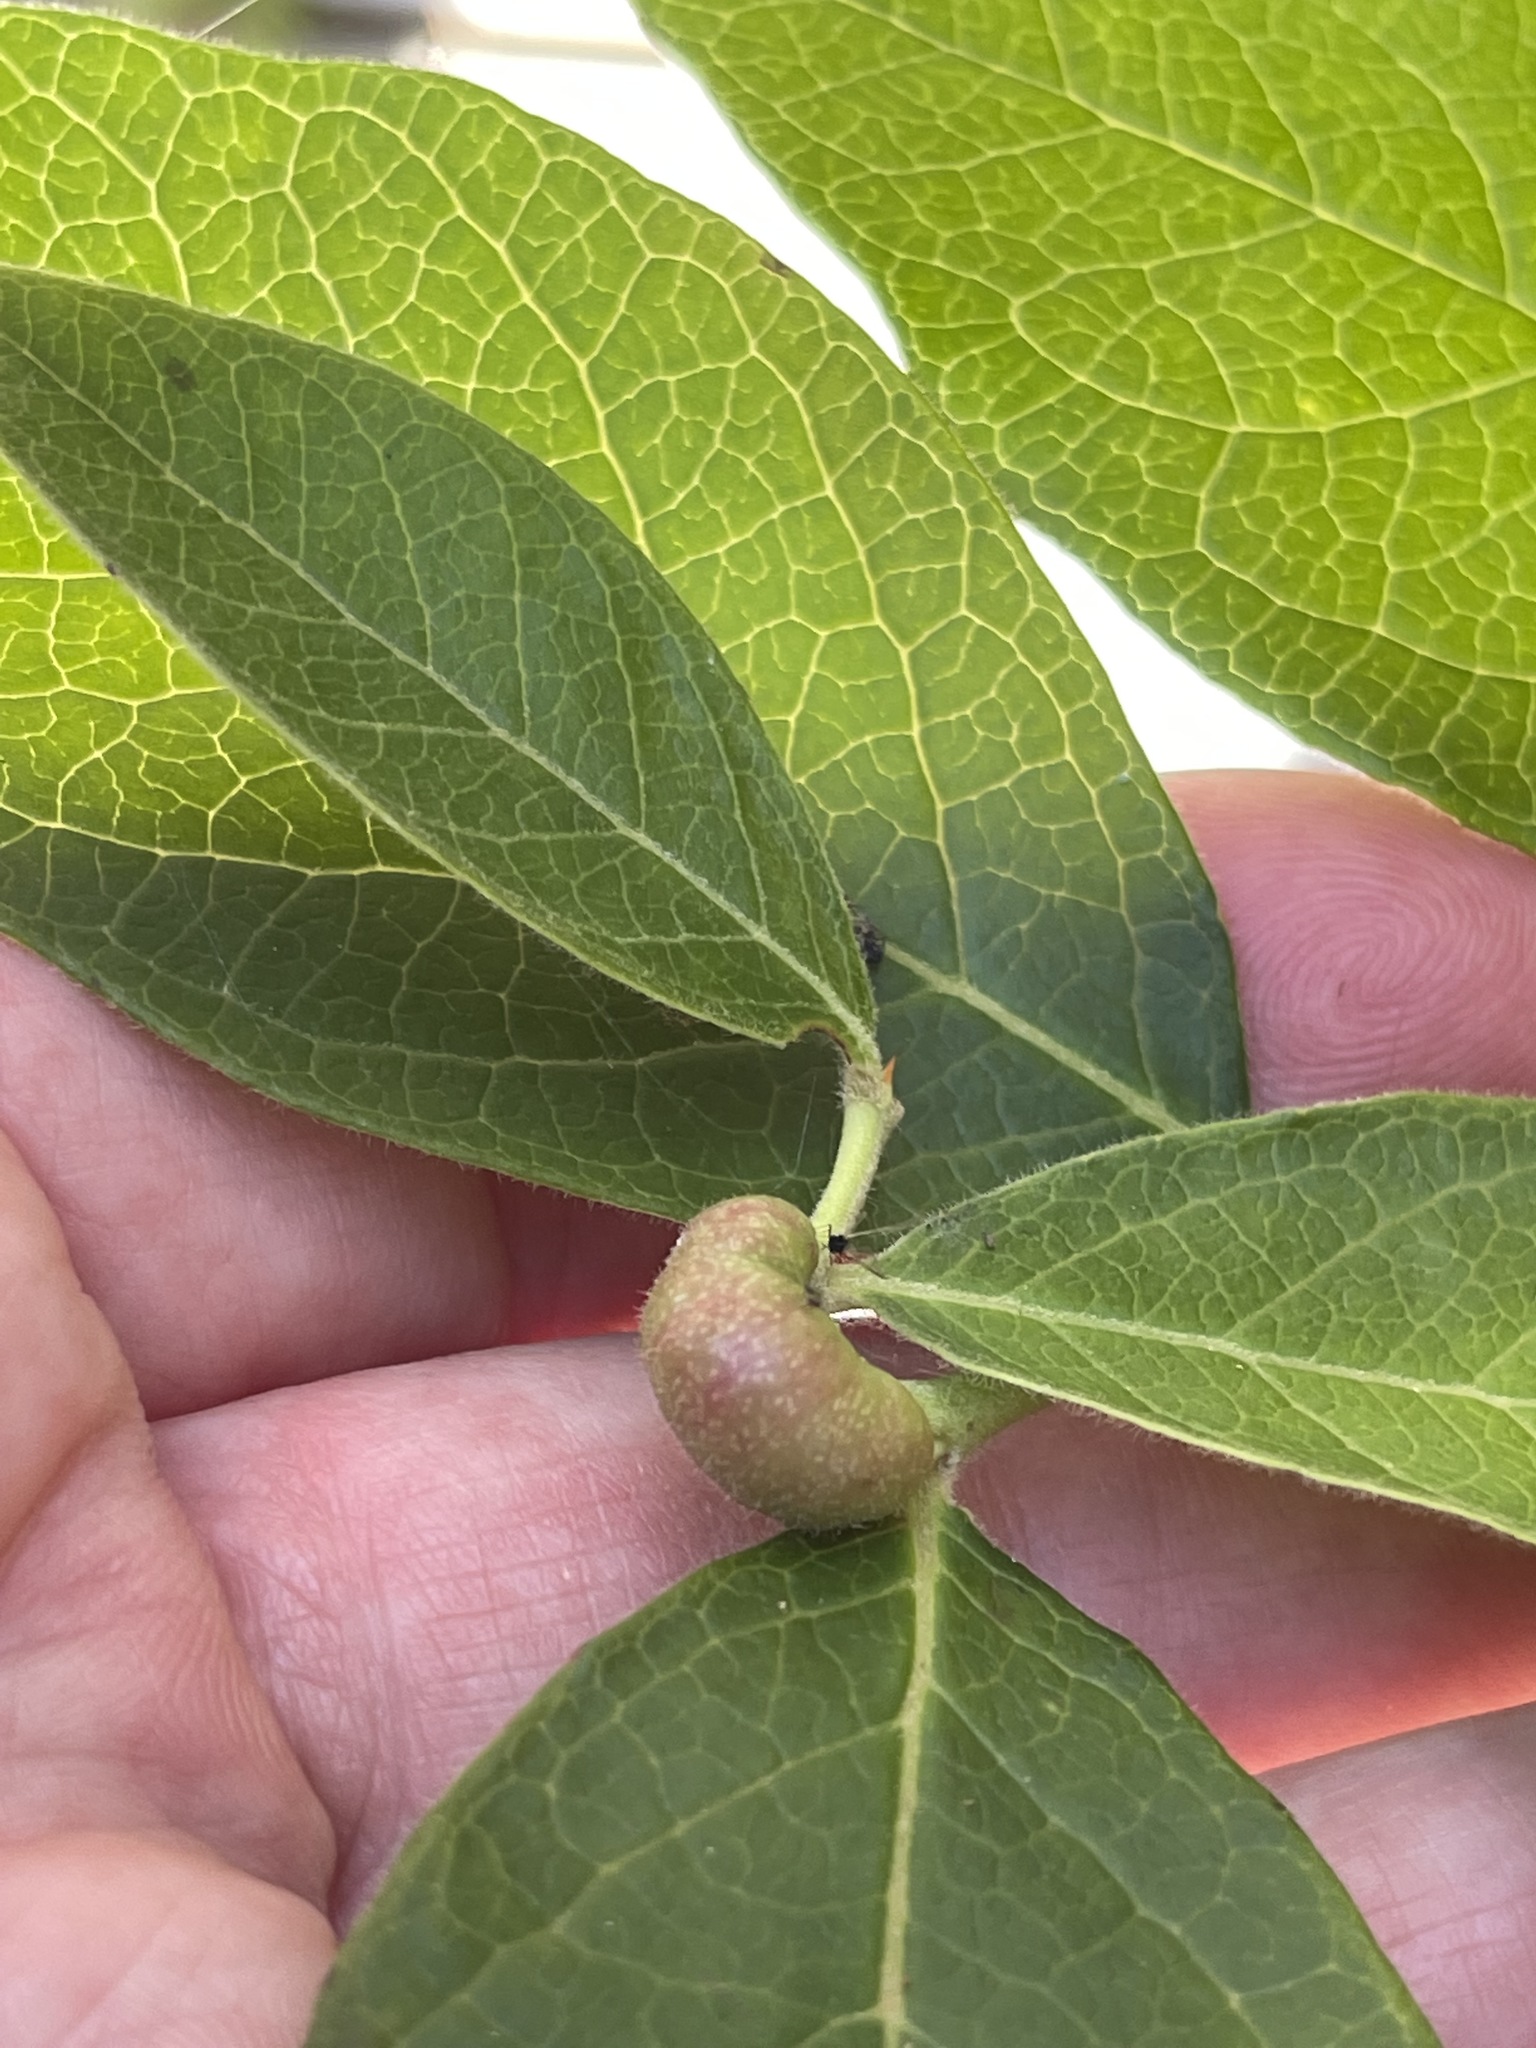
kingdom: Animalia
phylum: Arthropoda
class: Insecta
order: Hymenoptera
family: Pteromalidae
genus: Hemadas
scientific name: Hemadas nubilipennis
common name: Blueberry stem gall wasp
